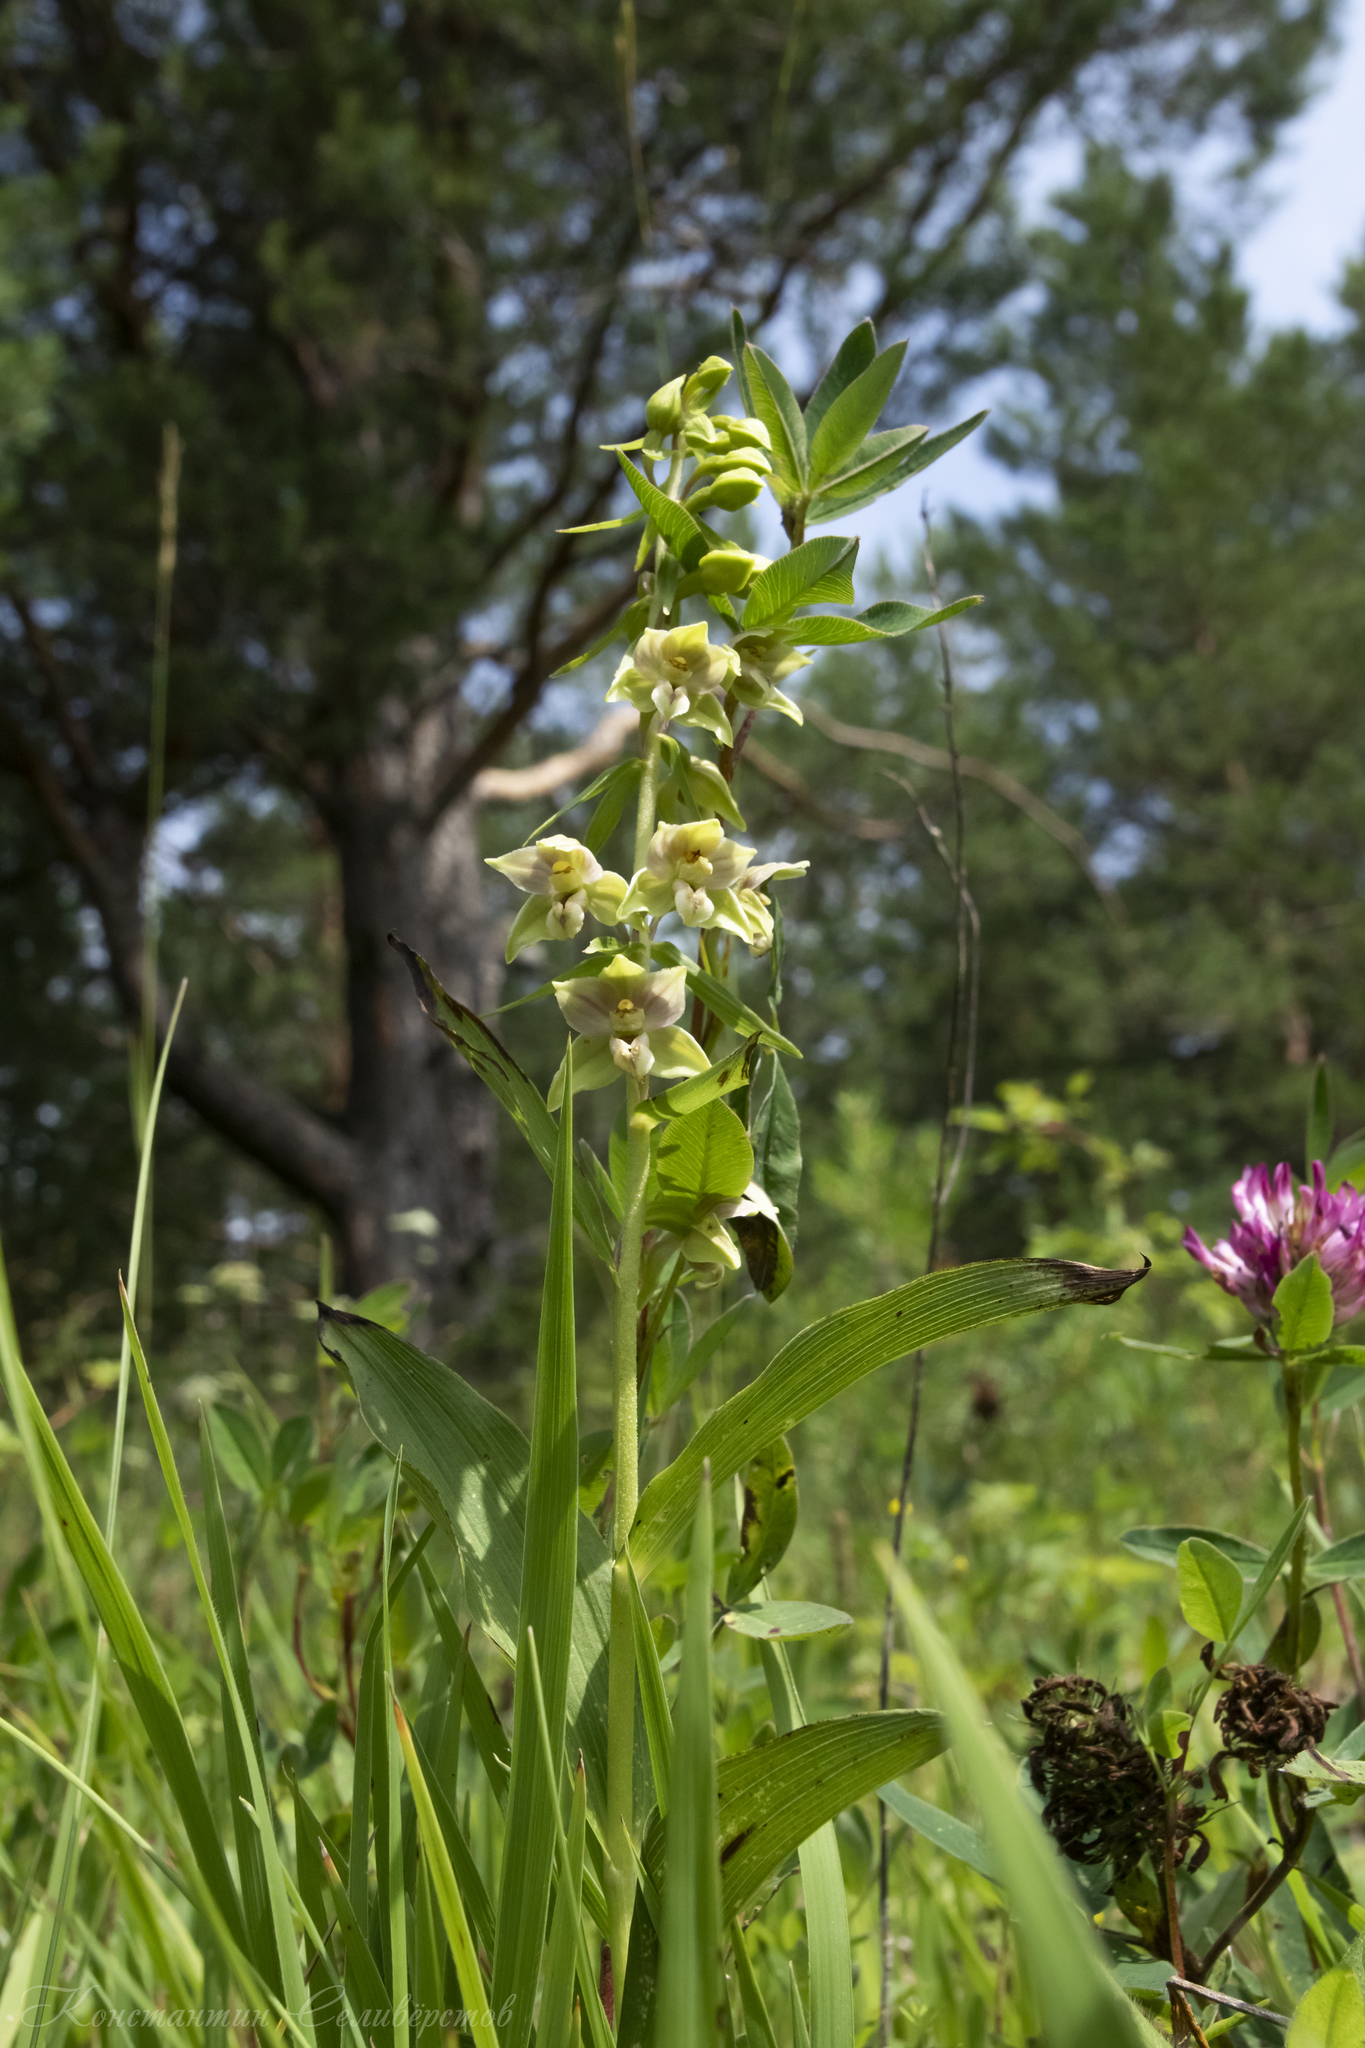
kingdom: Plantae
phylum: Tracheophyta
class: Liliopsida
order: Asparagales
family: Orchidaceae
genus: Epipactis
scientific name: Epipactis helleborine
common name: Broad-leaved helleborine
